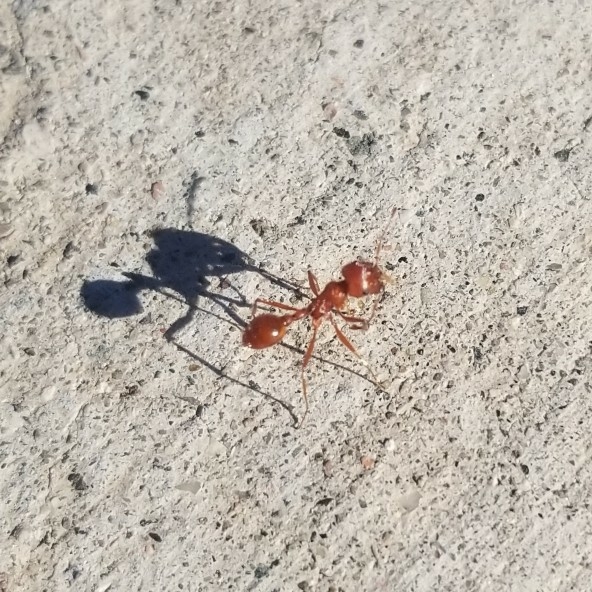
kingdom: Animalia
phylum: Arthropoda
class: Insecta
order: Hymenoptera
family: Formicidae
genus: Pogonomyrmex
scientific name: Pogonomyrmex maricopa
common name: Maricopa harvester ant
